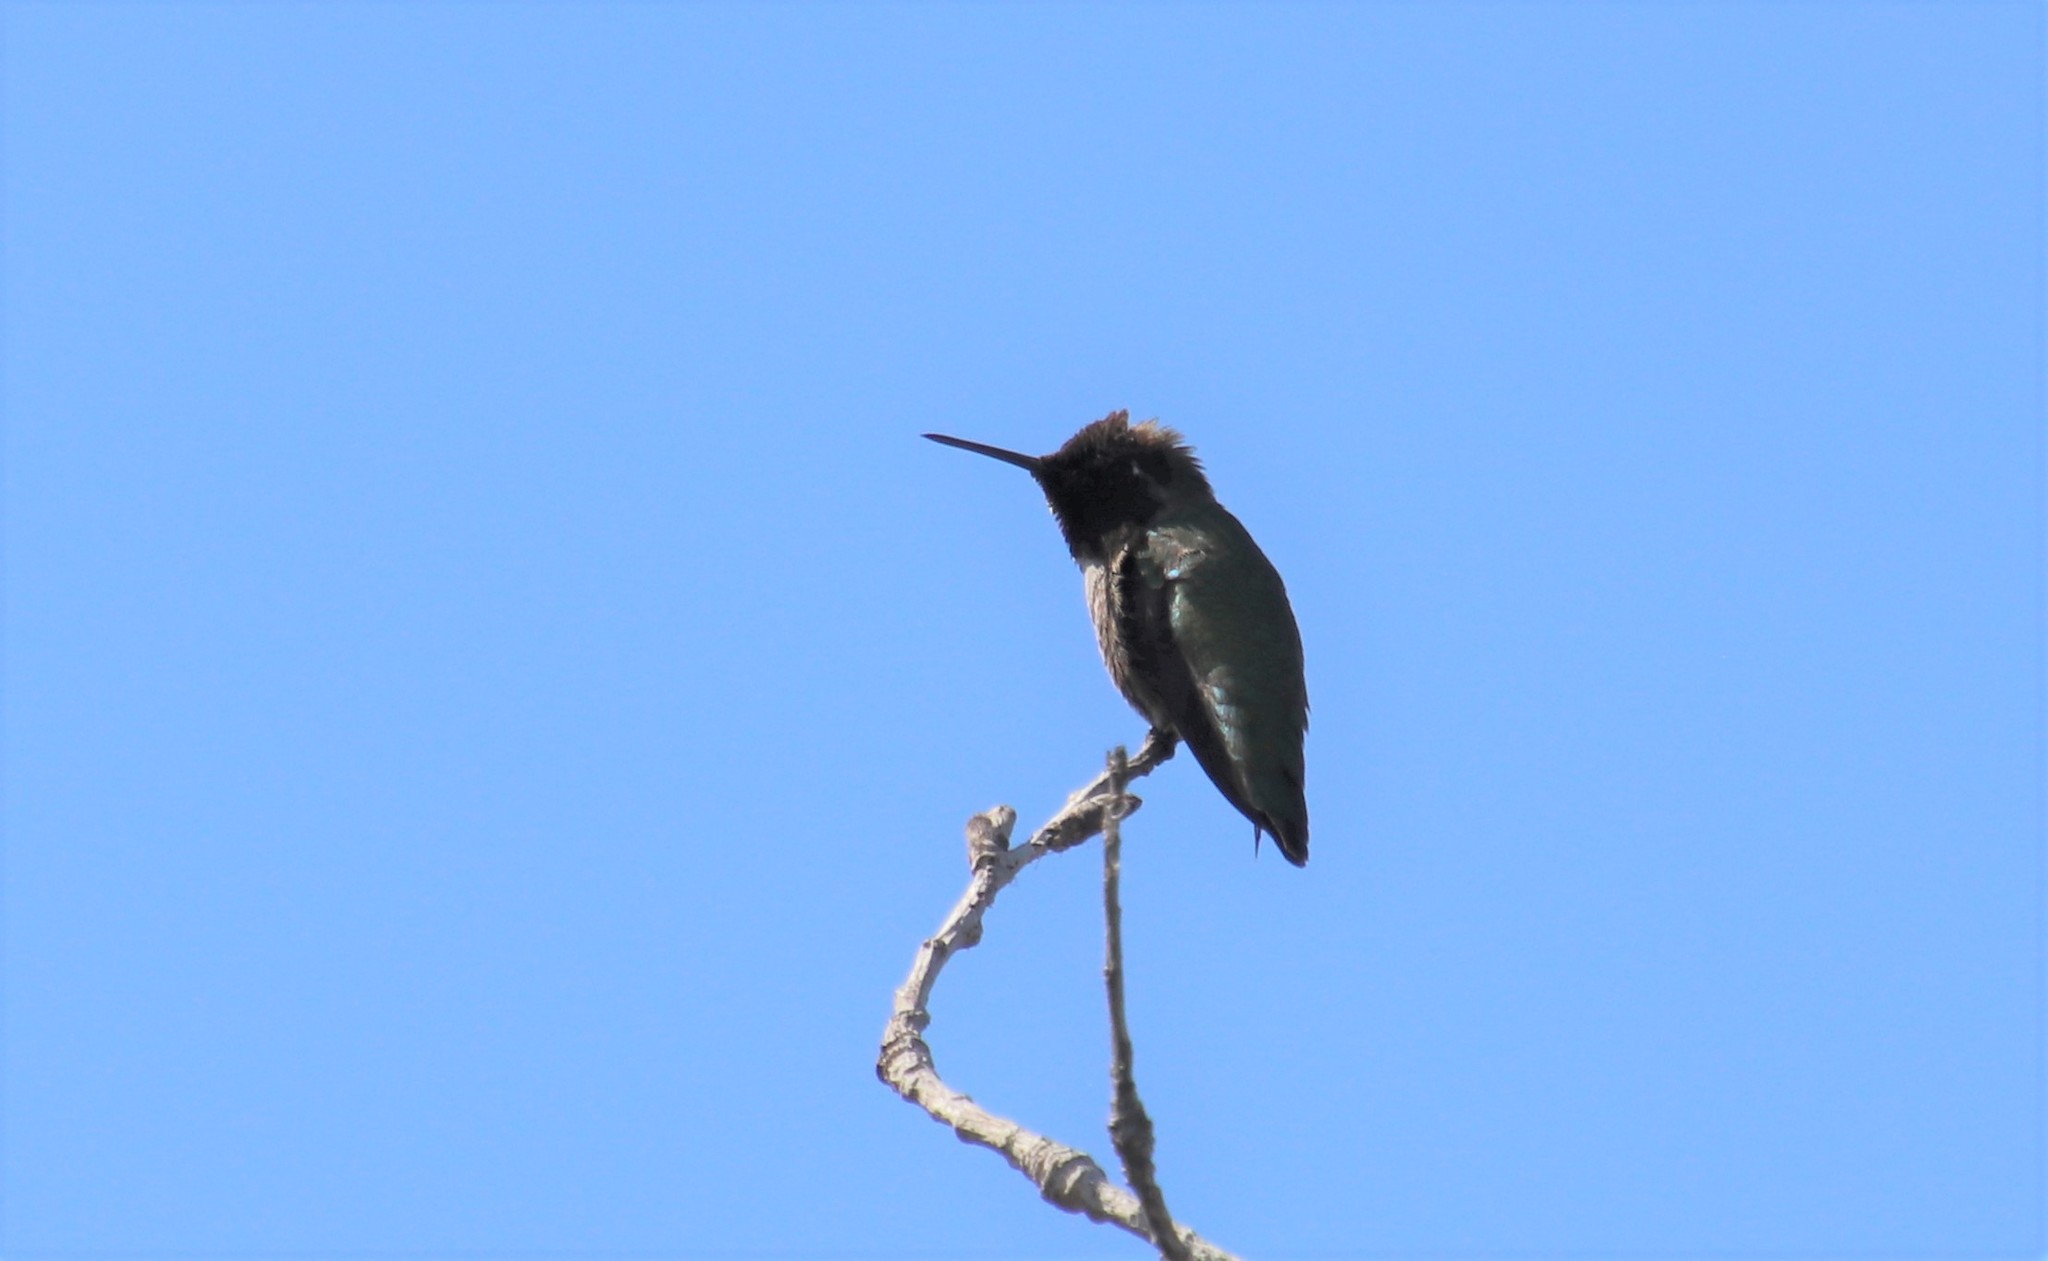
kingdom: Animalia
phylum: Chordata
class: Aves
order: Apodiformes
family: Trochilidae
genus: Calypte
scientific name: Calypte anna
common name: Anna's hummingbird
